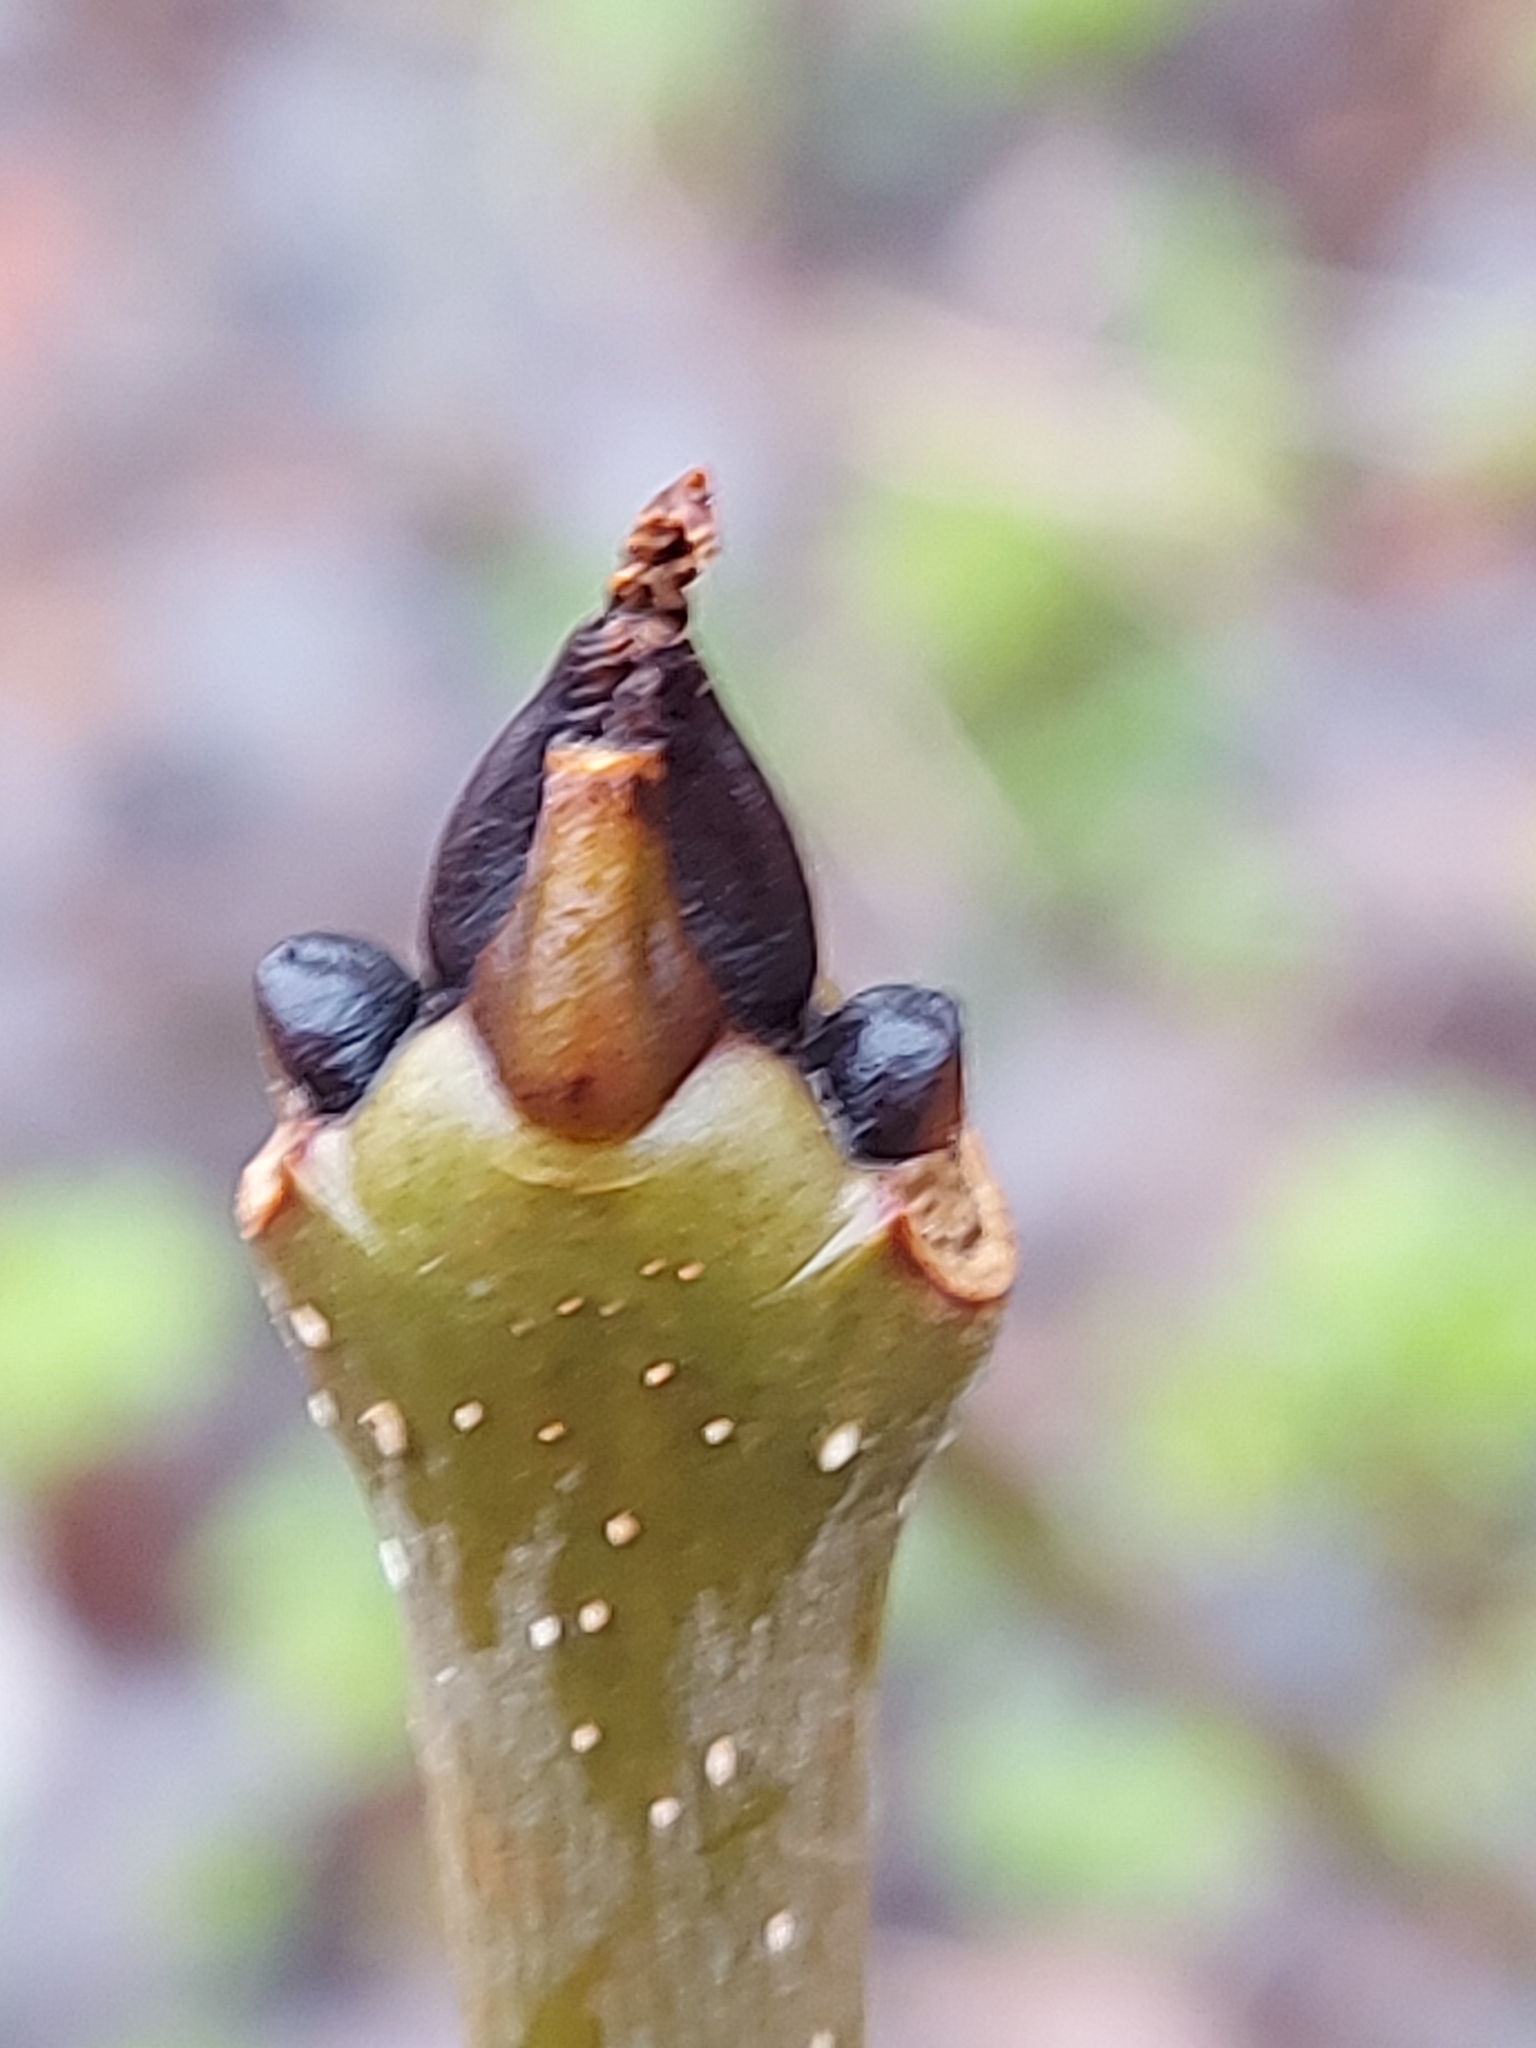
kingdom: Plantae
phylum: Tracheophyta
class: Magnoliopsida
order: Lamiales
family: Oleaceae
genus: Fraxinus
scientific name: Fraxinus excelsior
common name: European ash
